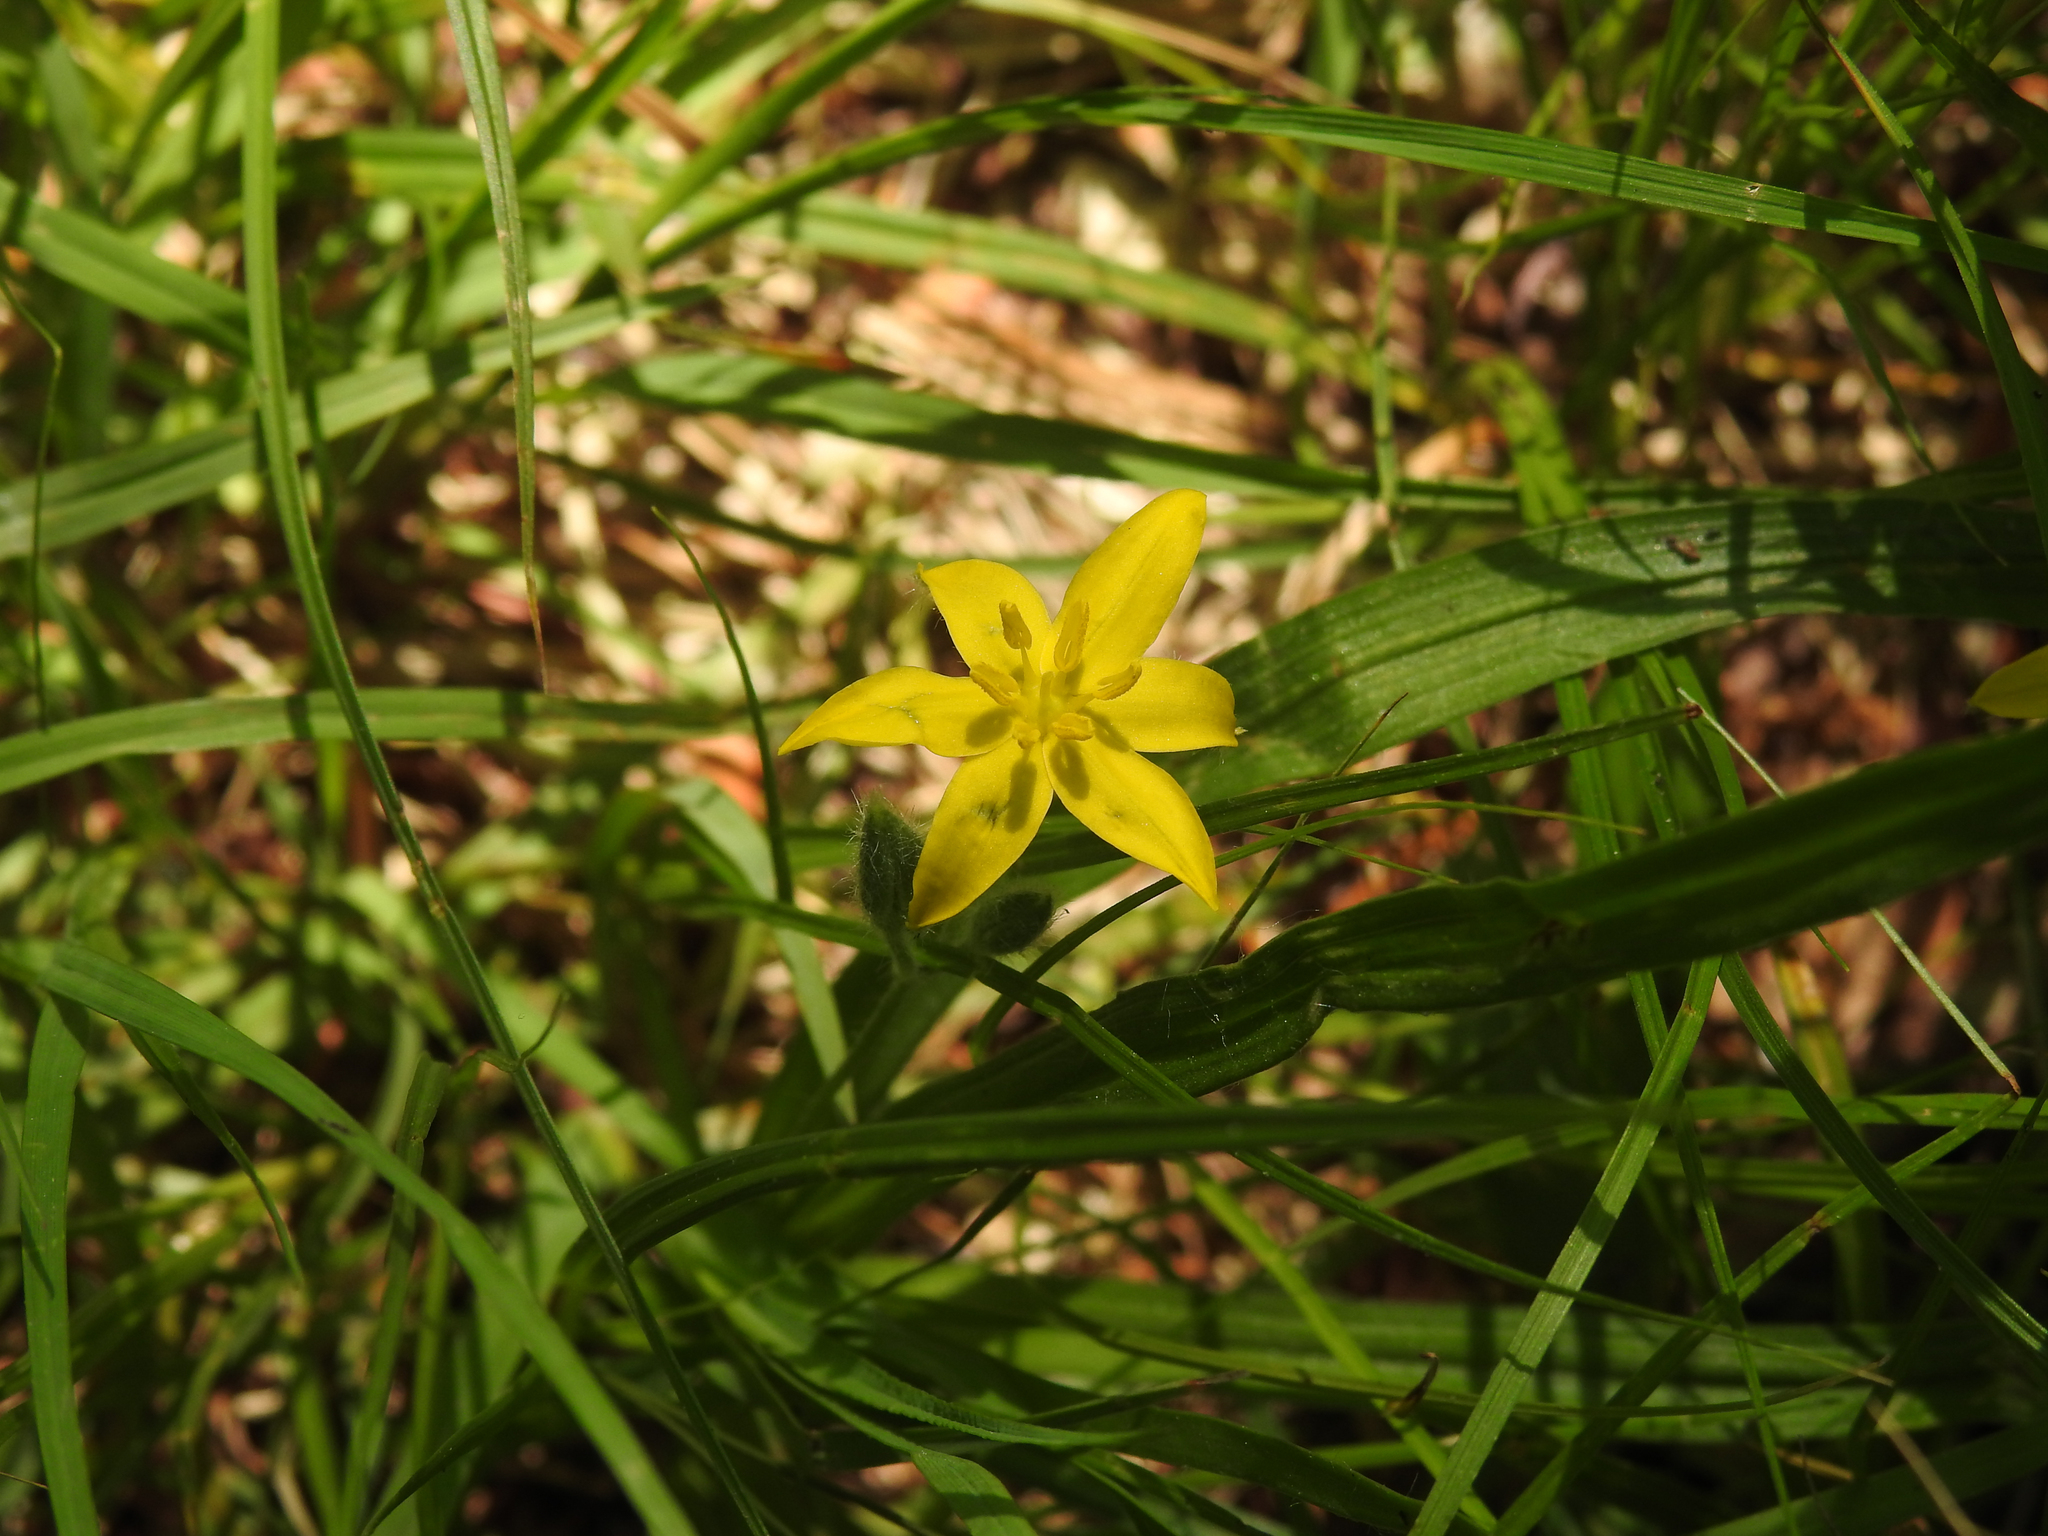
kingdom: Plantae
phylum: Tracheophyta
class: Liliopsida
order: Asparagales
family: Hypoxidaceae
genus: Hypoxis
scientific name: Hypoxis hirsuta
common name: Common goldstar
